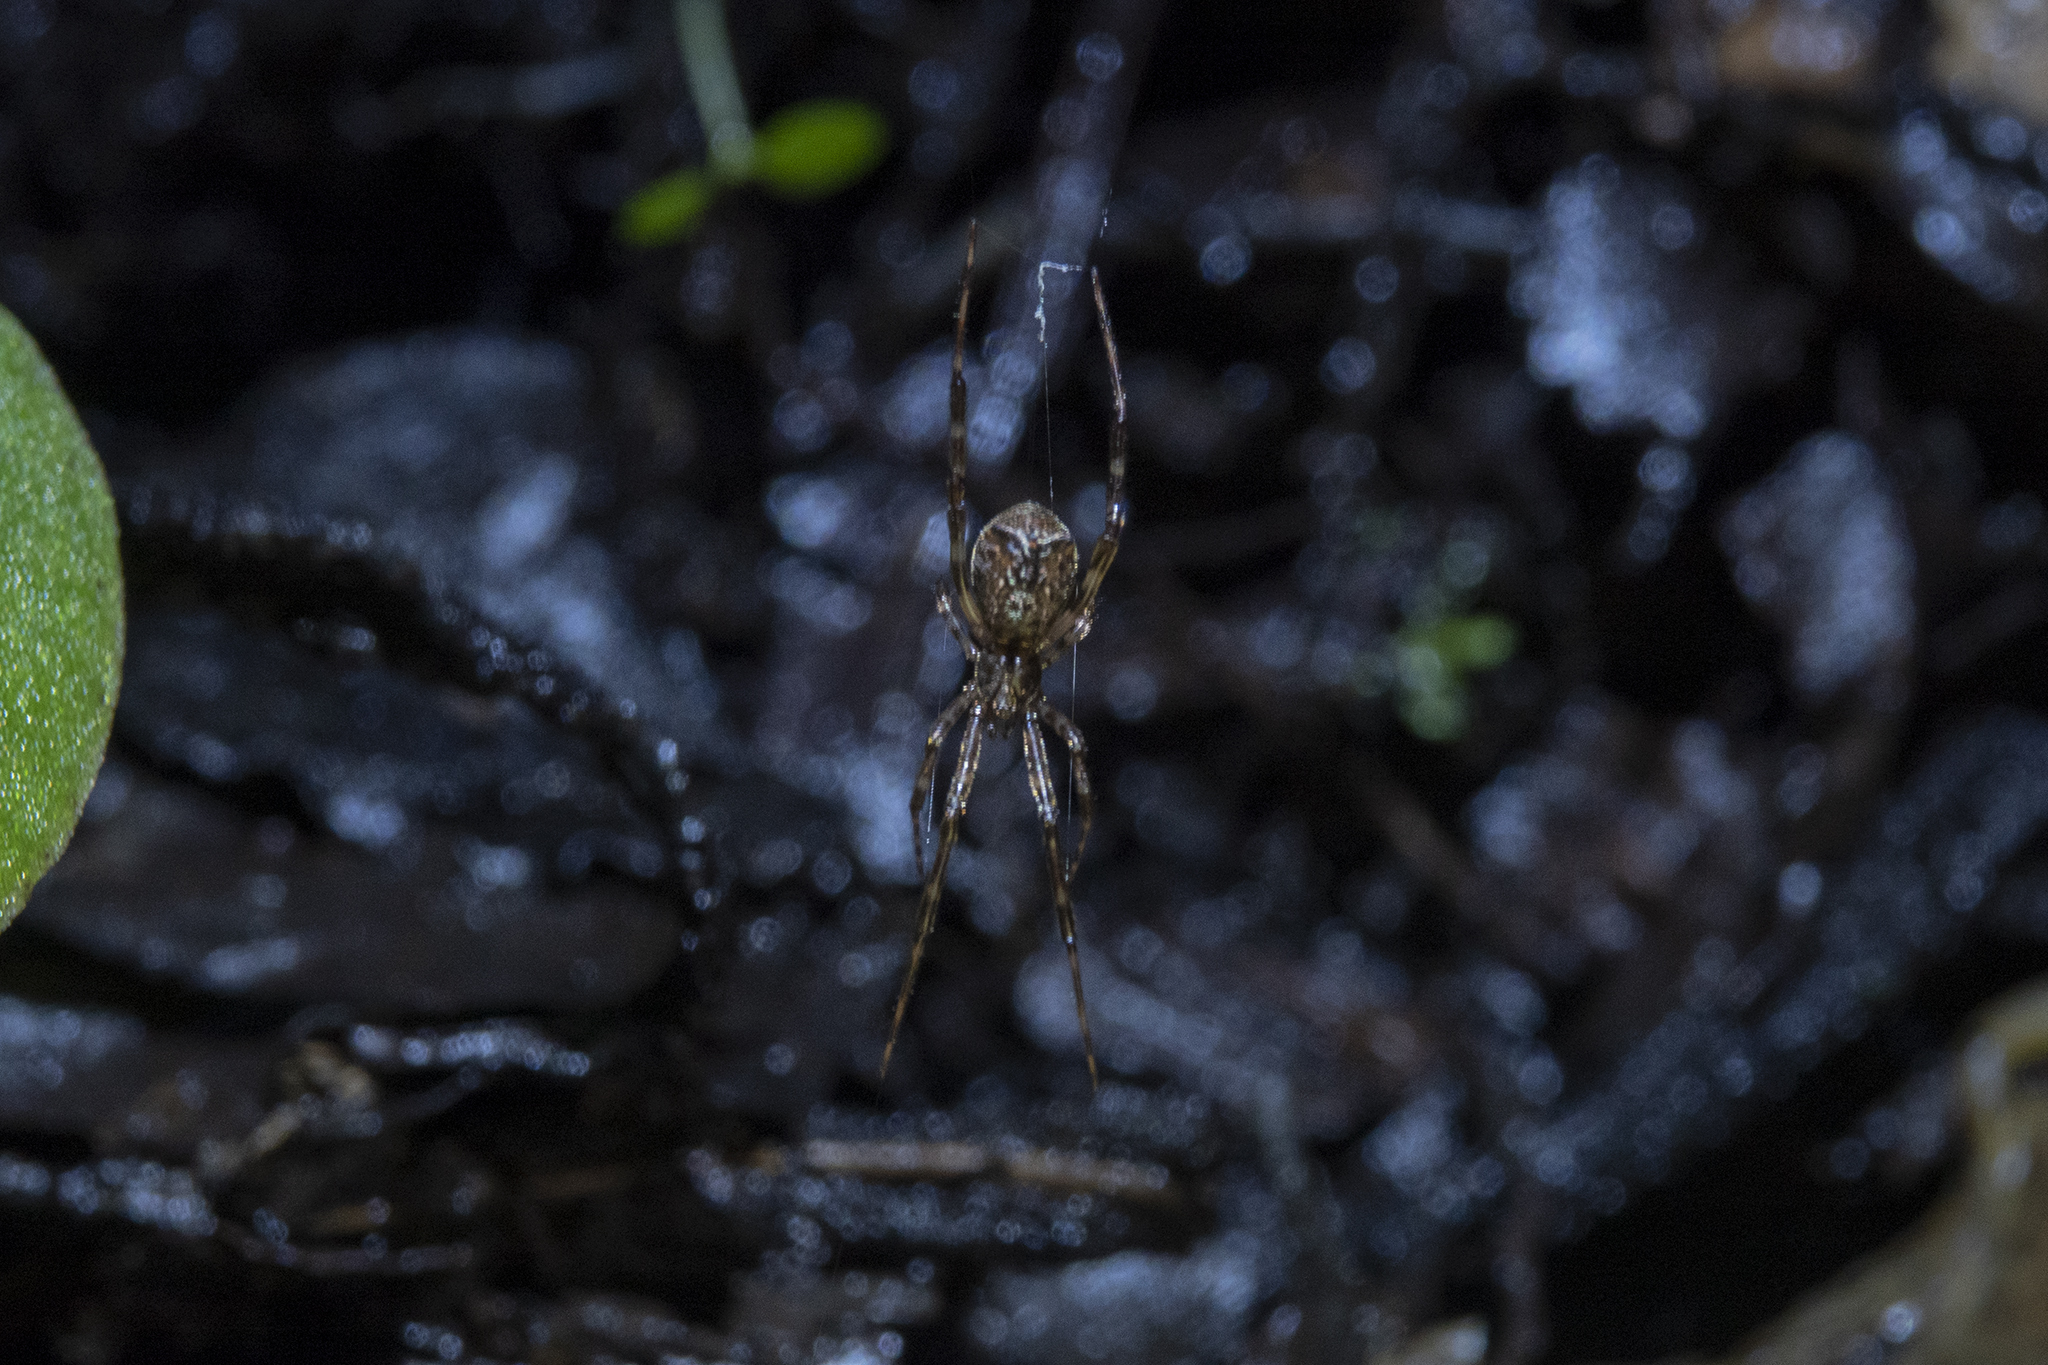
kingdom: Animalia
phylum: Arthropoda
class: Arachnida
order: Araneae
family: Theridiidae
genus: Episinus
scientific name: Episinus
